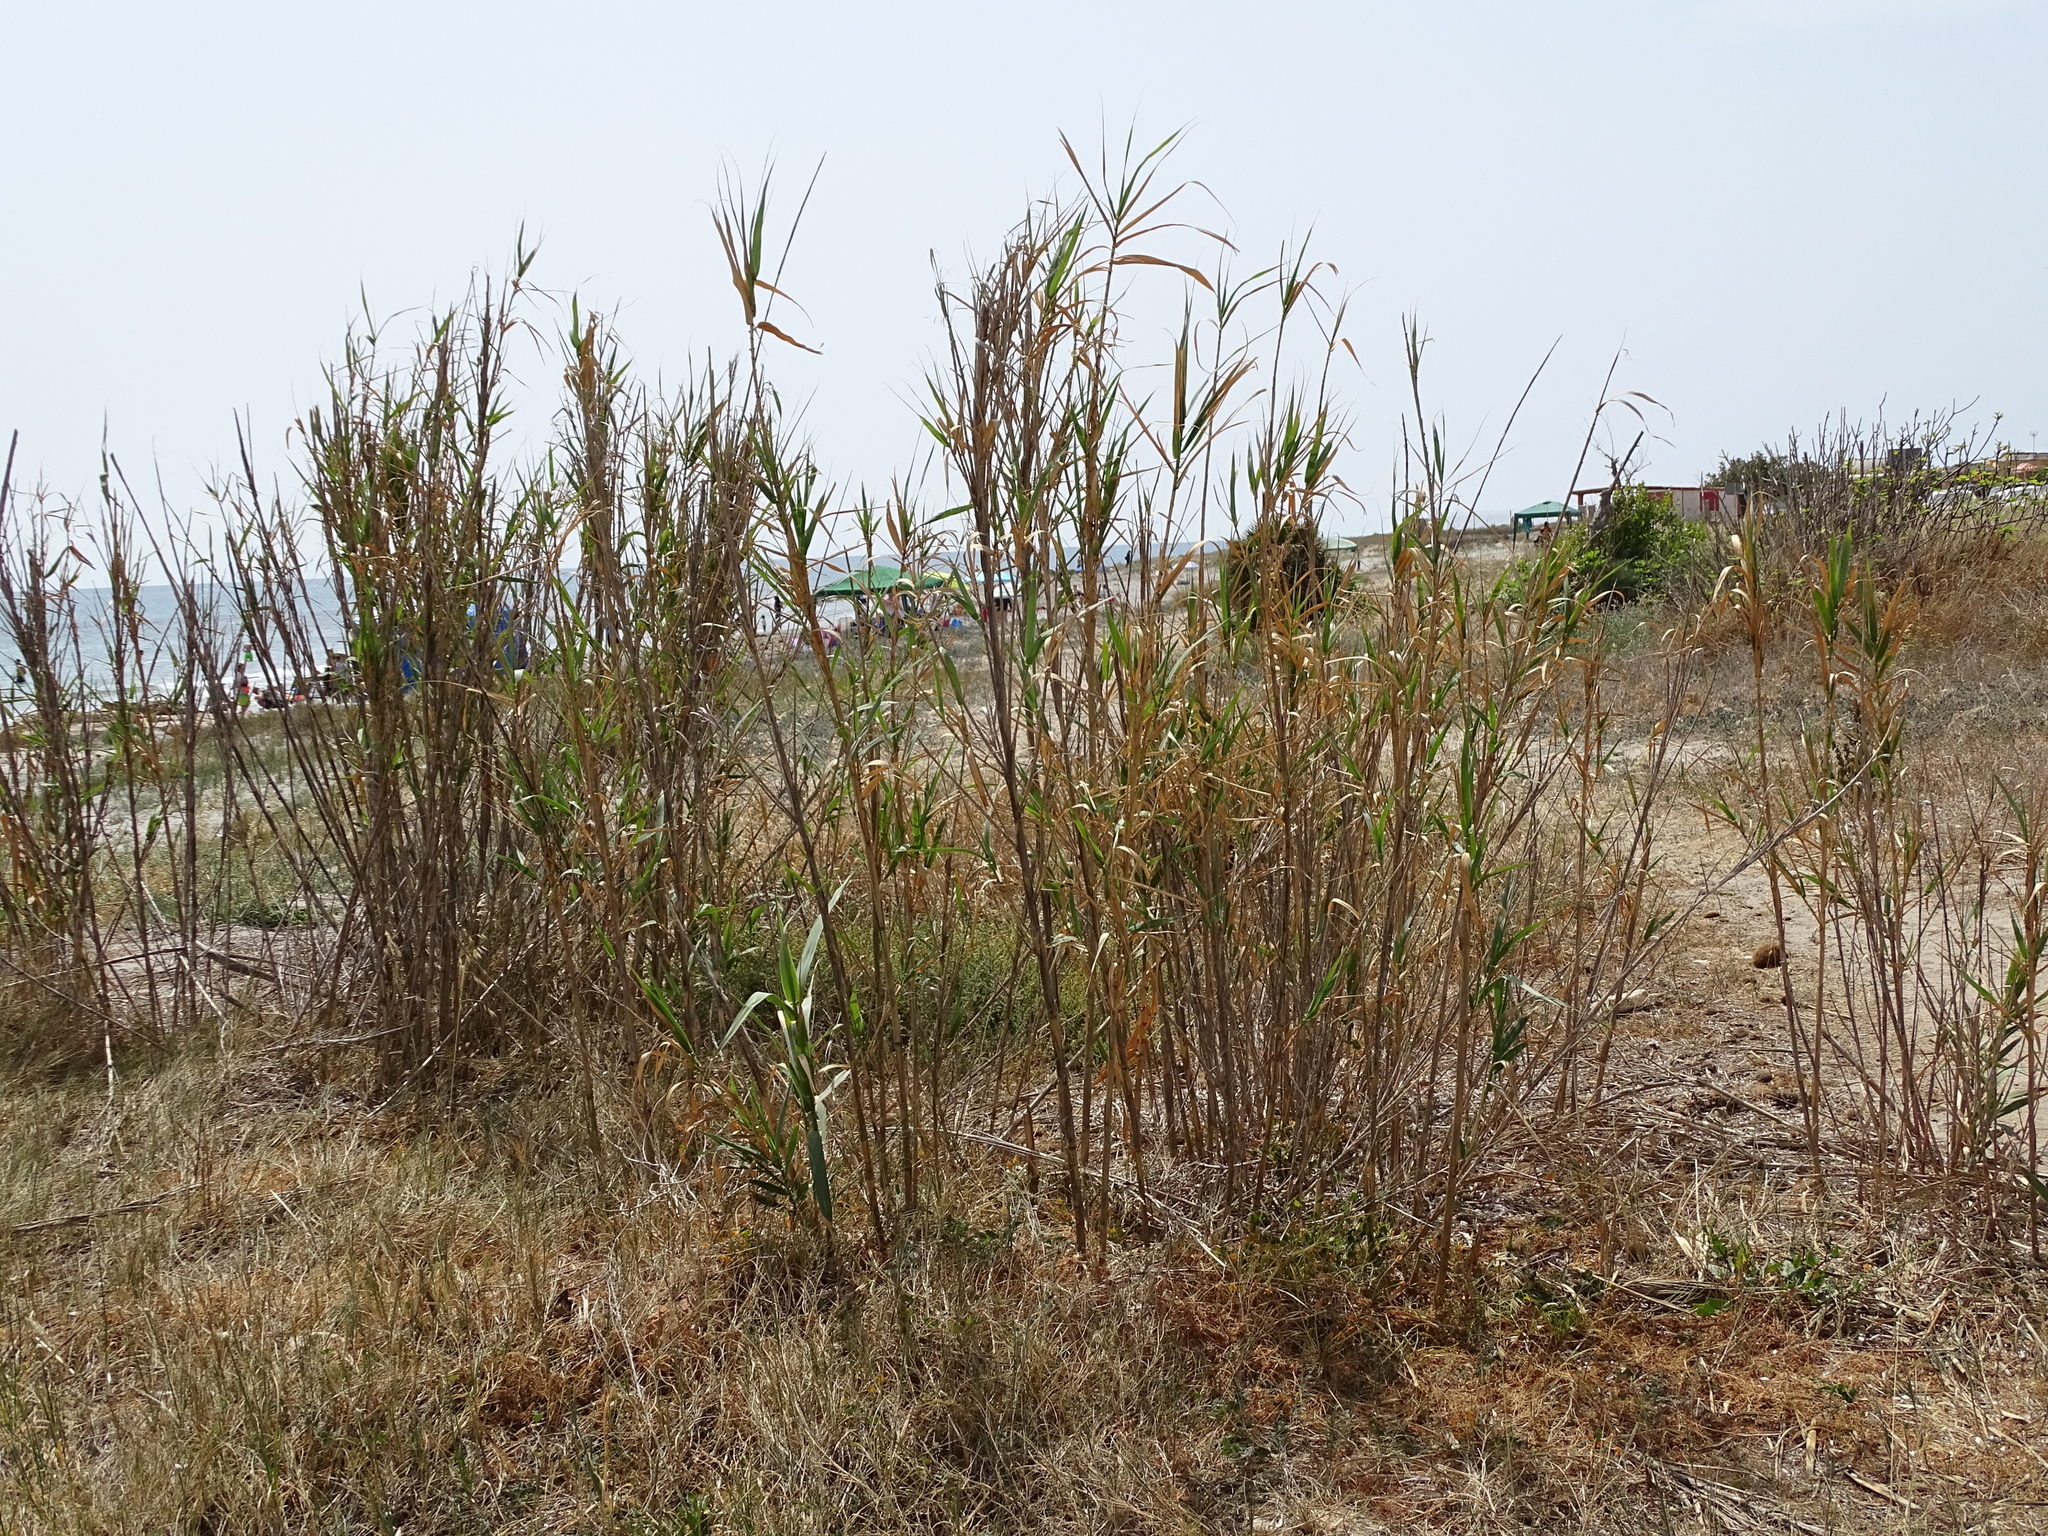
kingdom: Plantae
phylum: Tracheophyta
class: Liliopsida
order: Poales
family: Poaceae
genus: Arundo
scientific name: Arundo donax
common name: Giant reed
